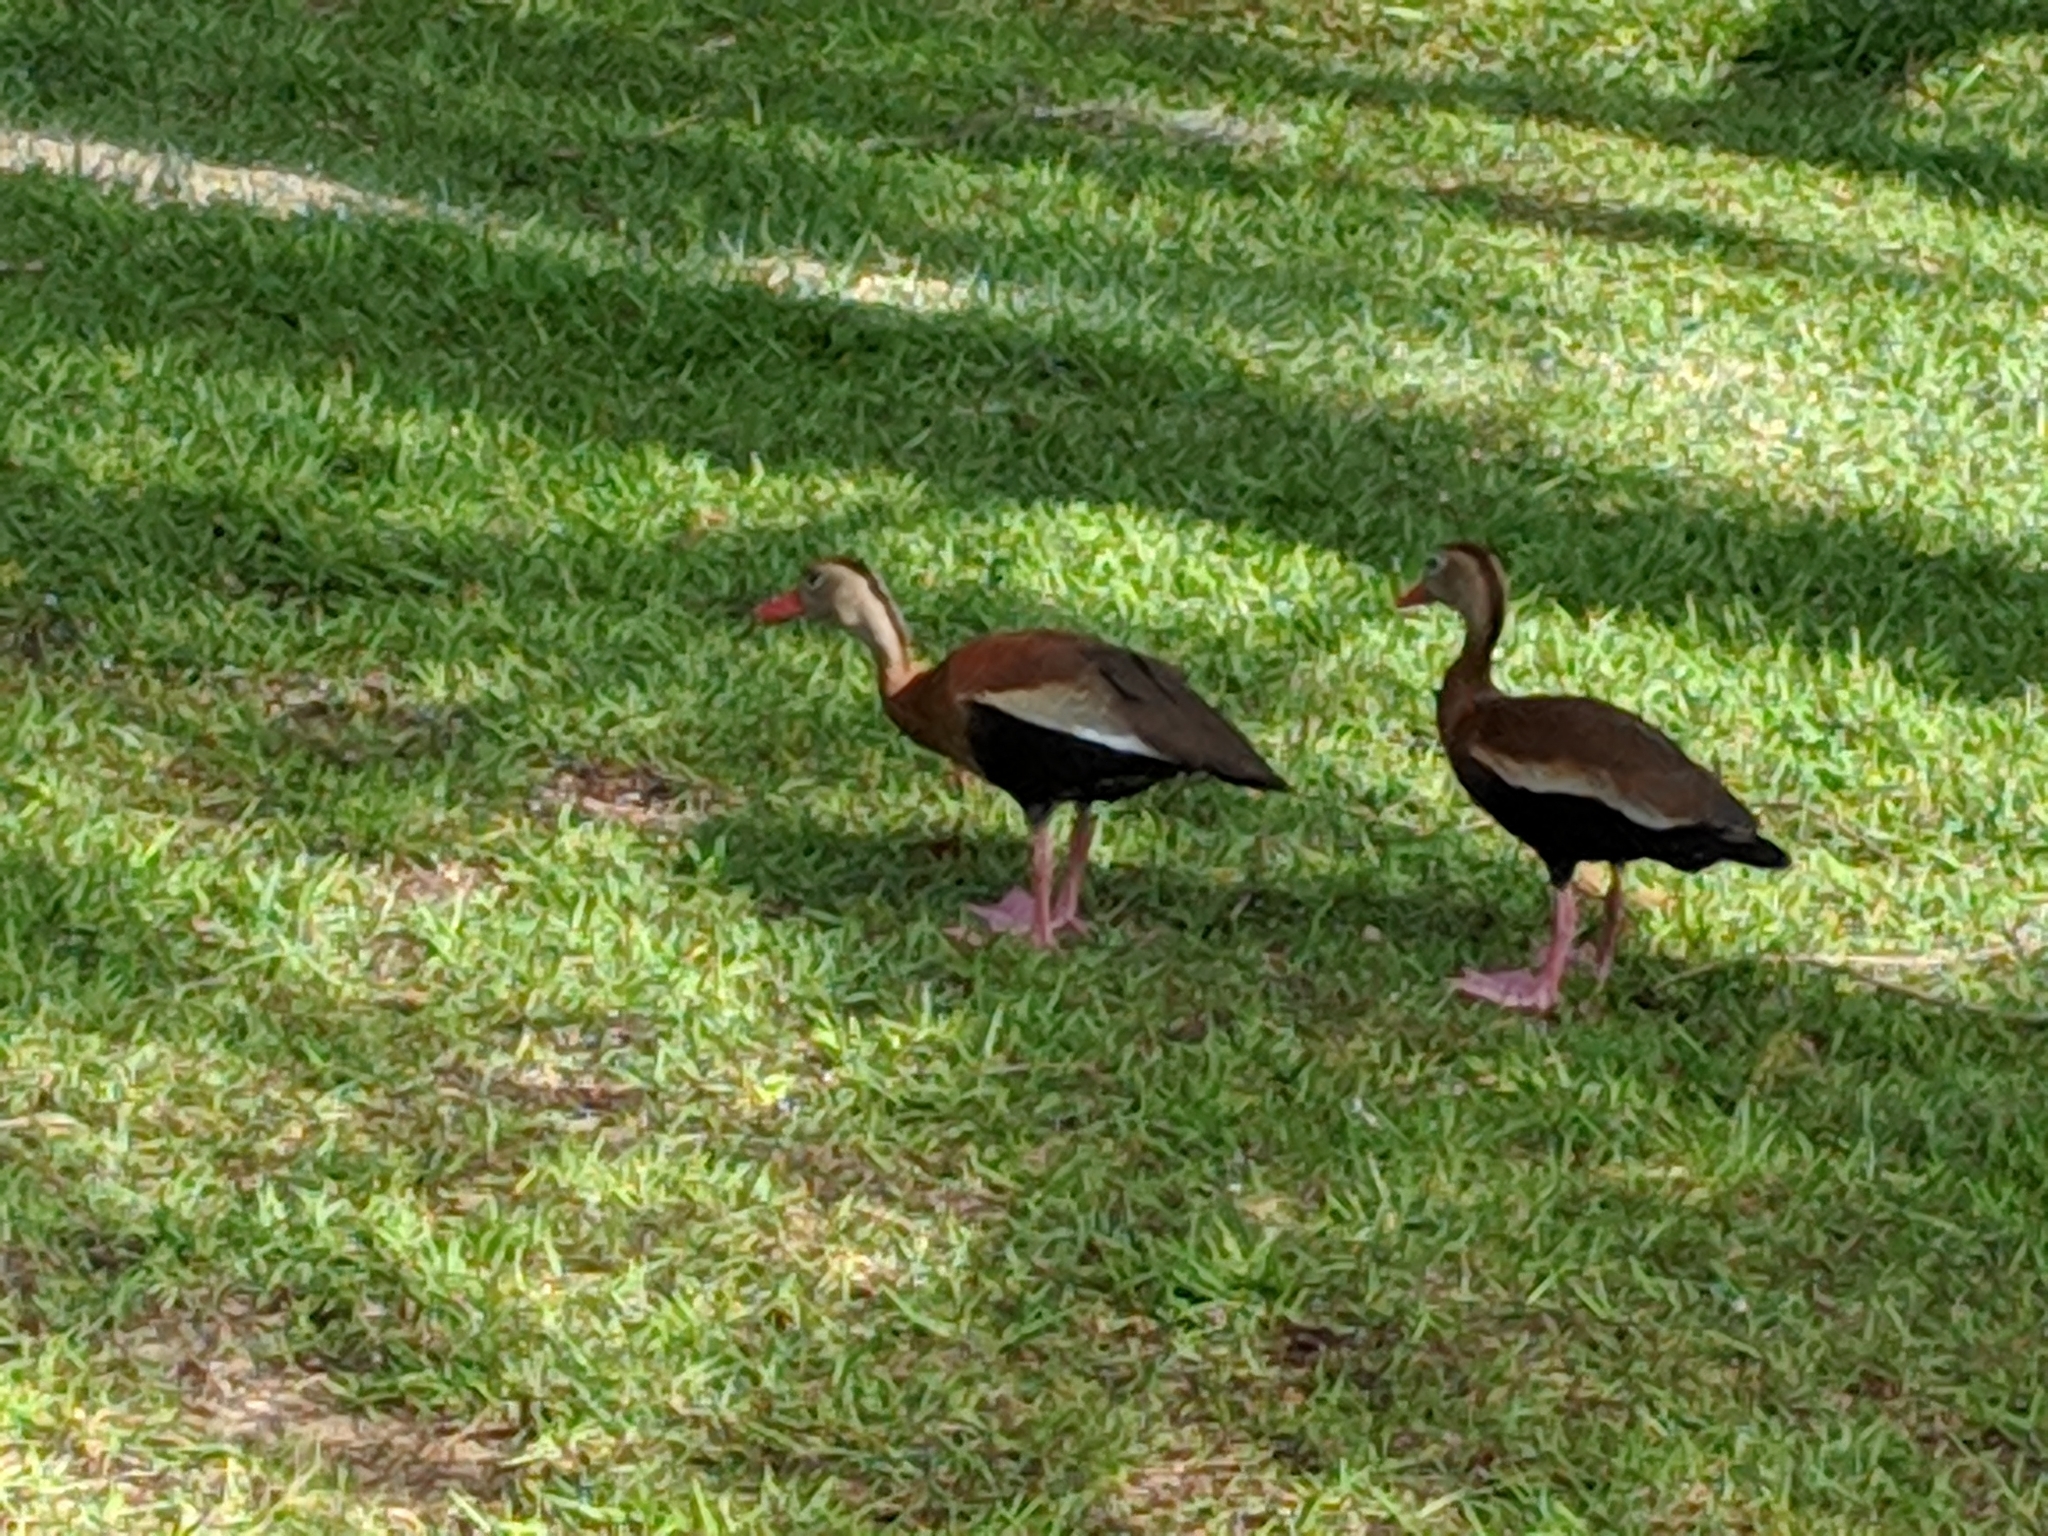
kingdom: Animalia
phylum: Chordata
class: Aves
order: Anseriformes
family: Anatidae
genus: Dendrocygna
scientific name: Dendrocygna autumnalis
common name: Black-bellied whistling duck
